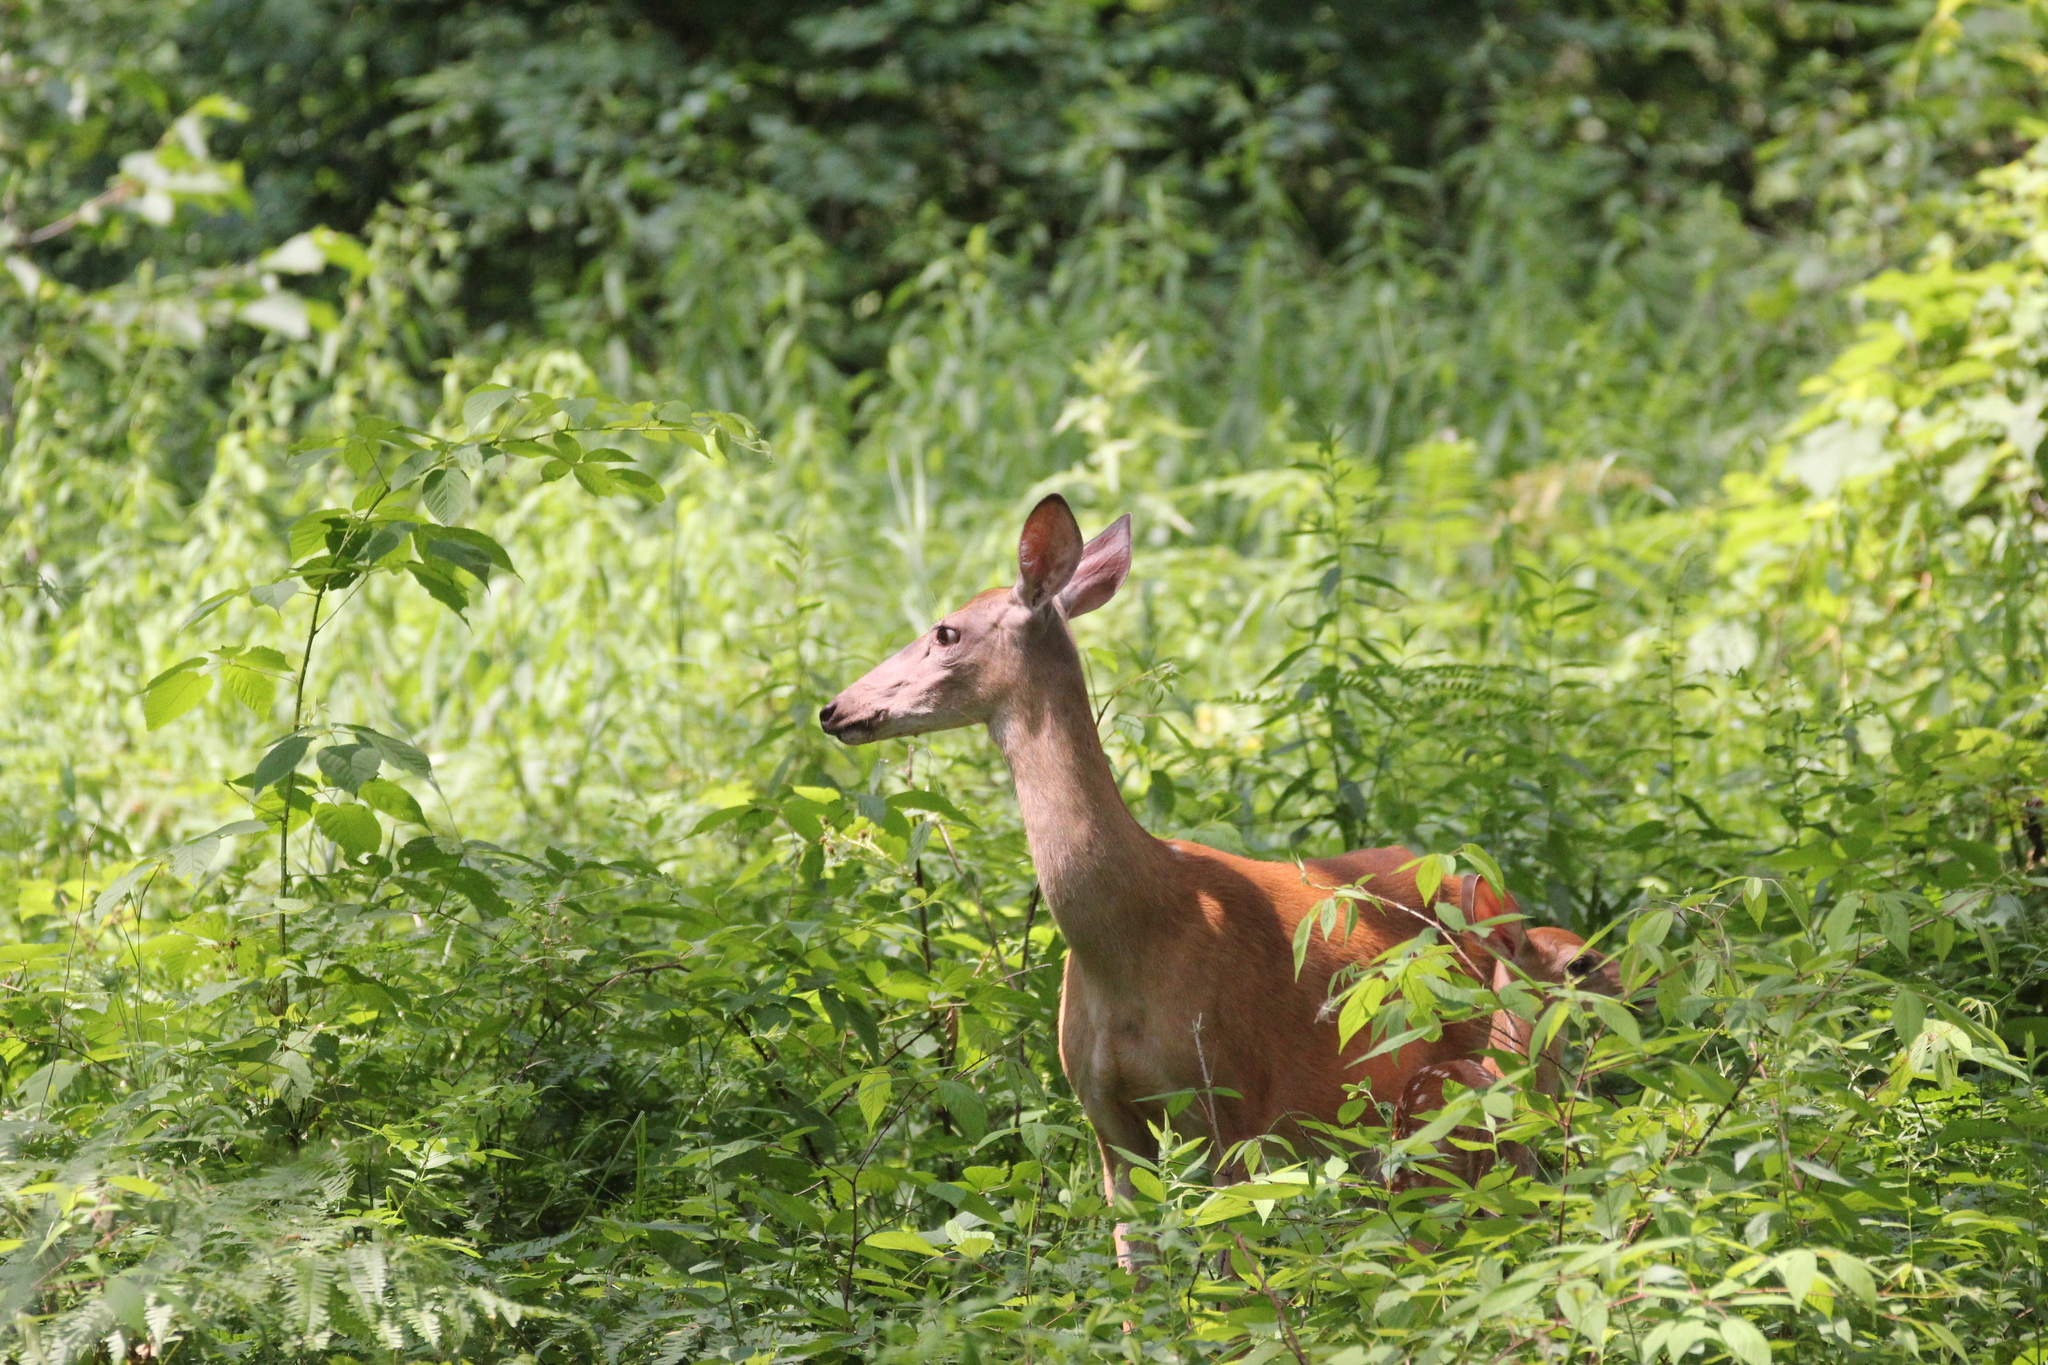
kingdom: Animalia
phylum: Chordata
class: Mammalia
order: Artiodactyla
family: Cervidae
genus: Odocoileus
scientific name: Odocoileus virginianus
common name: White-tailed deer
